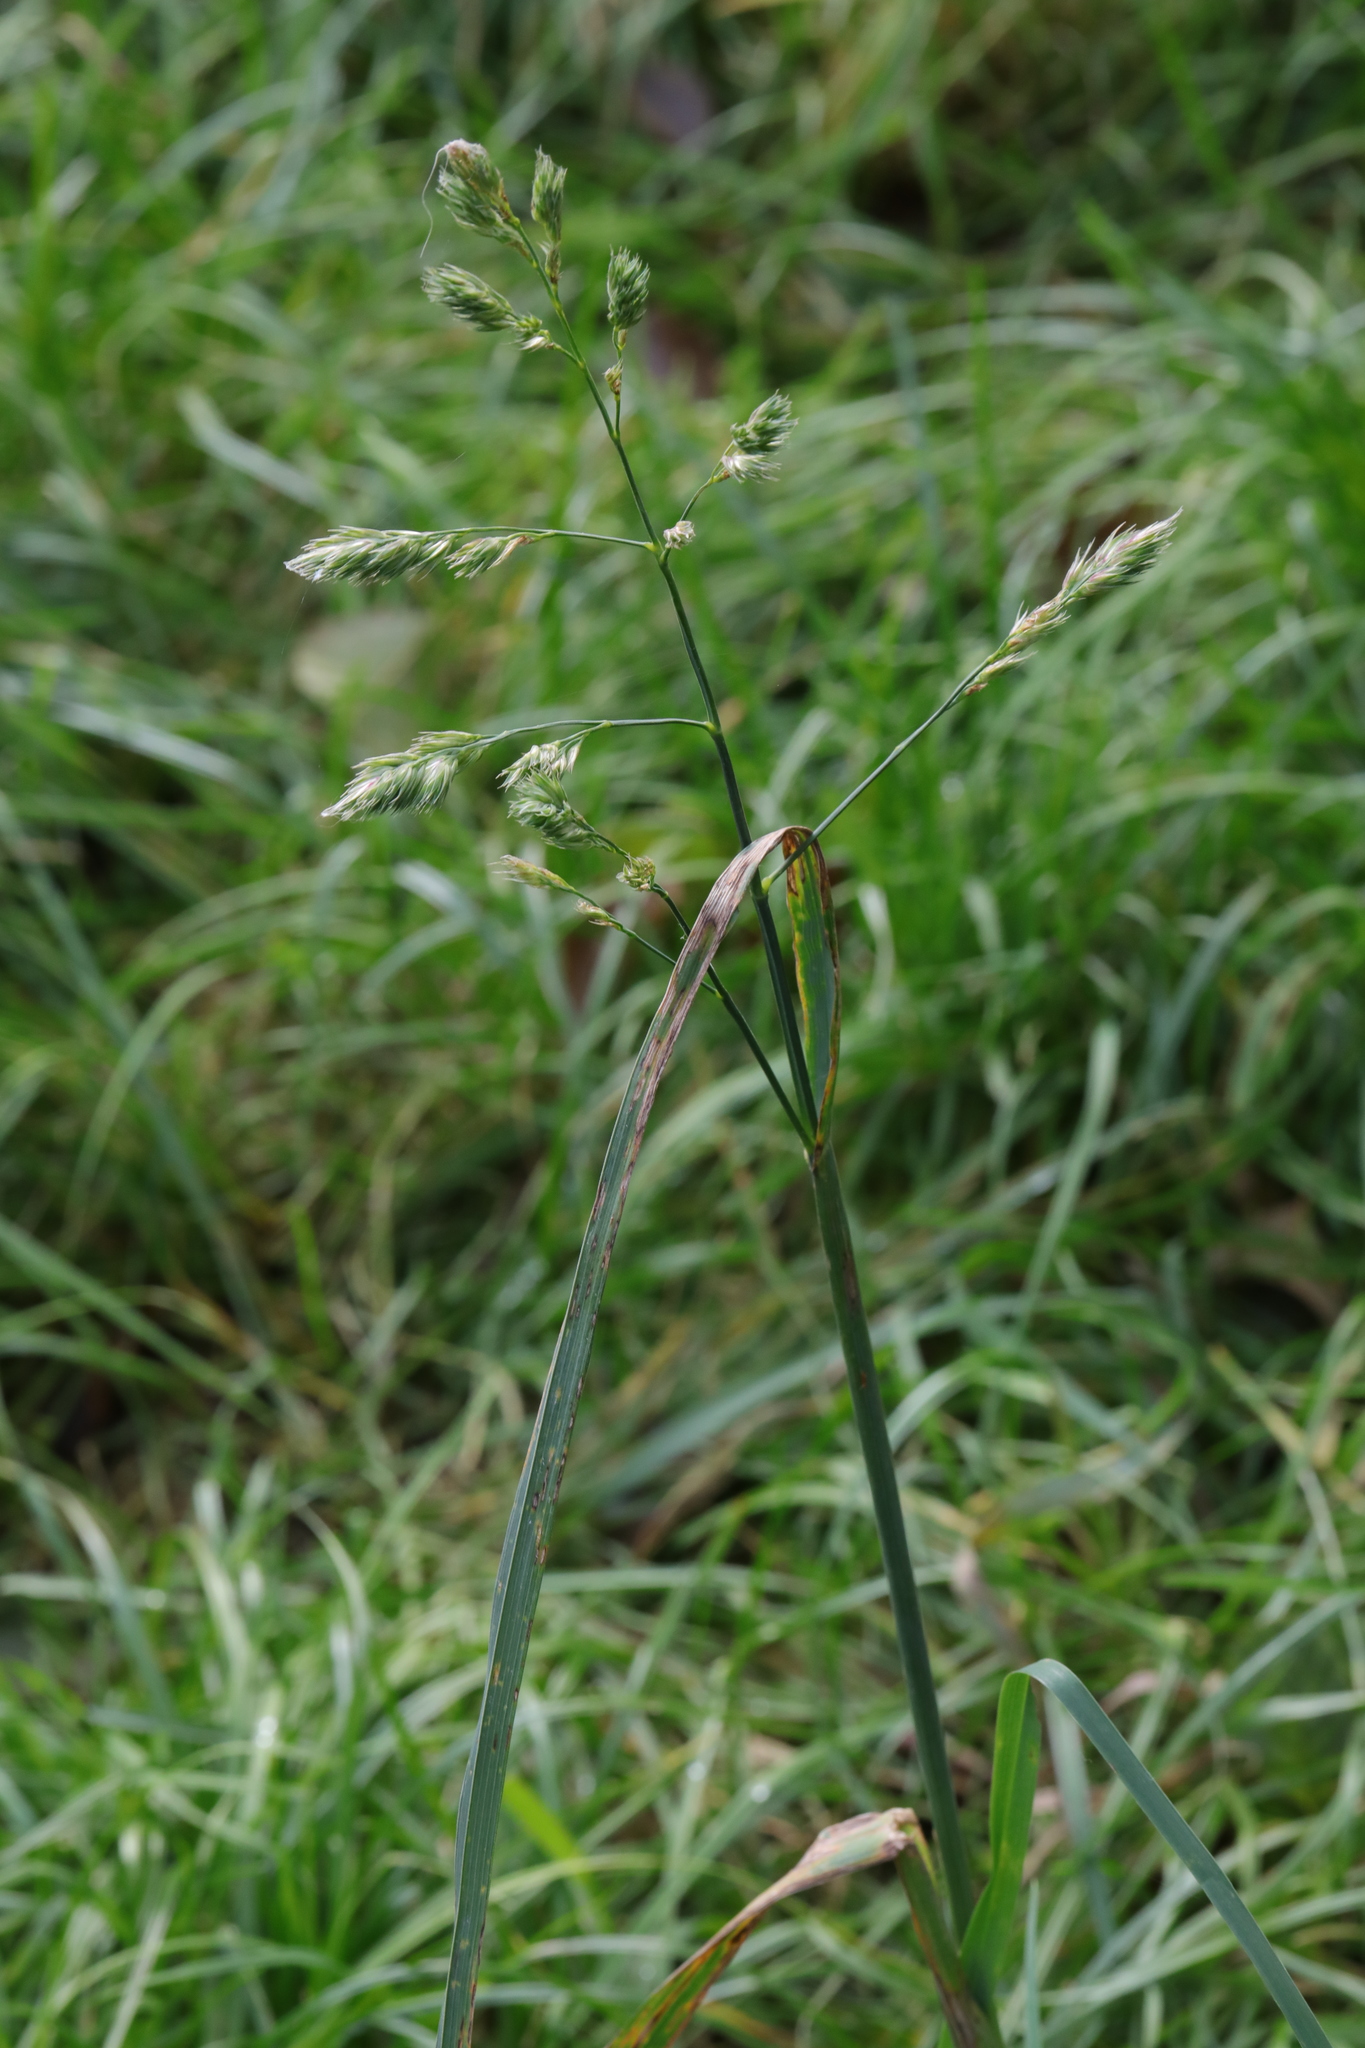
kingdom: Plantae
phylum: Tracheophyta
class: Liliopsida
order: Poales
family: Poaceae
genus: Dactylis
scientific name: Dactylis glomerata
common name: Orchardgrass
